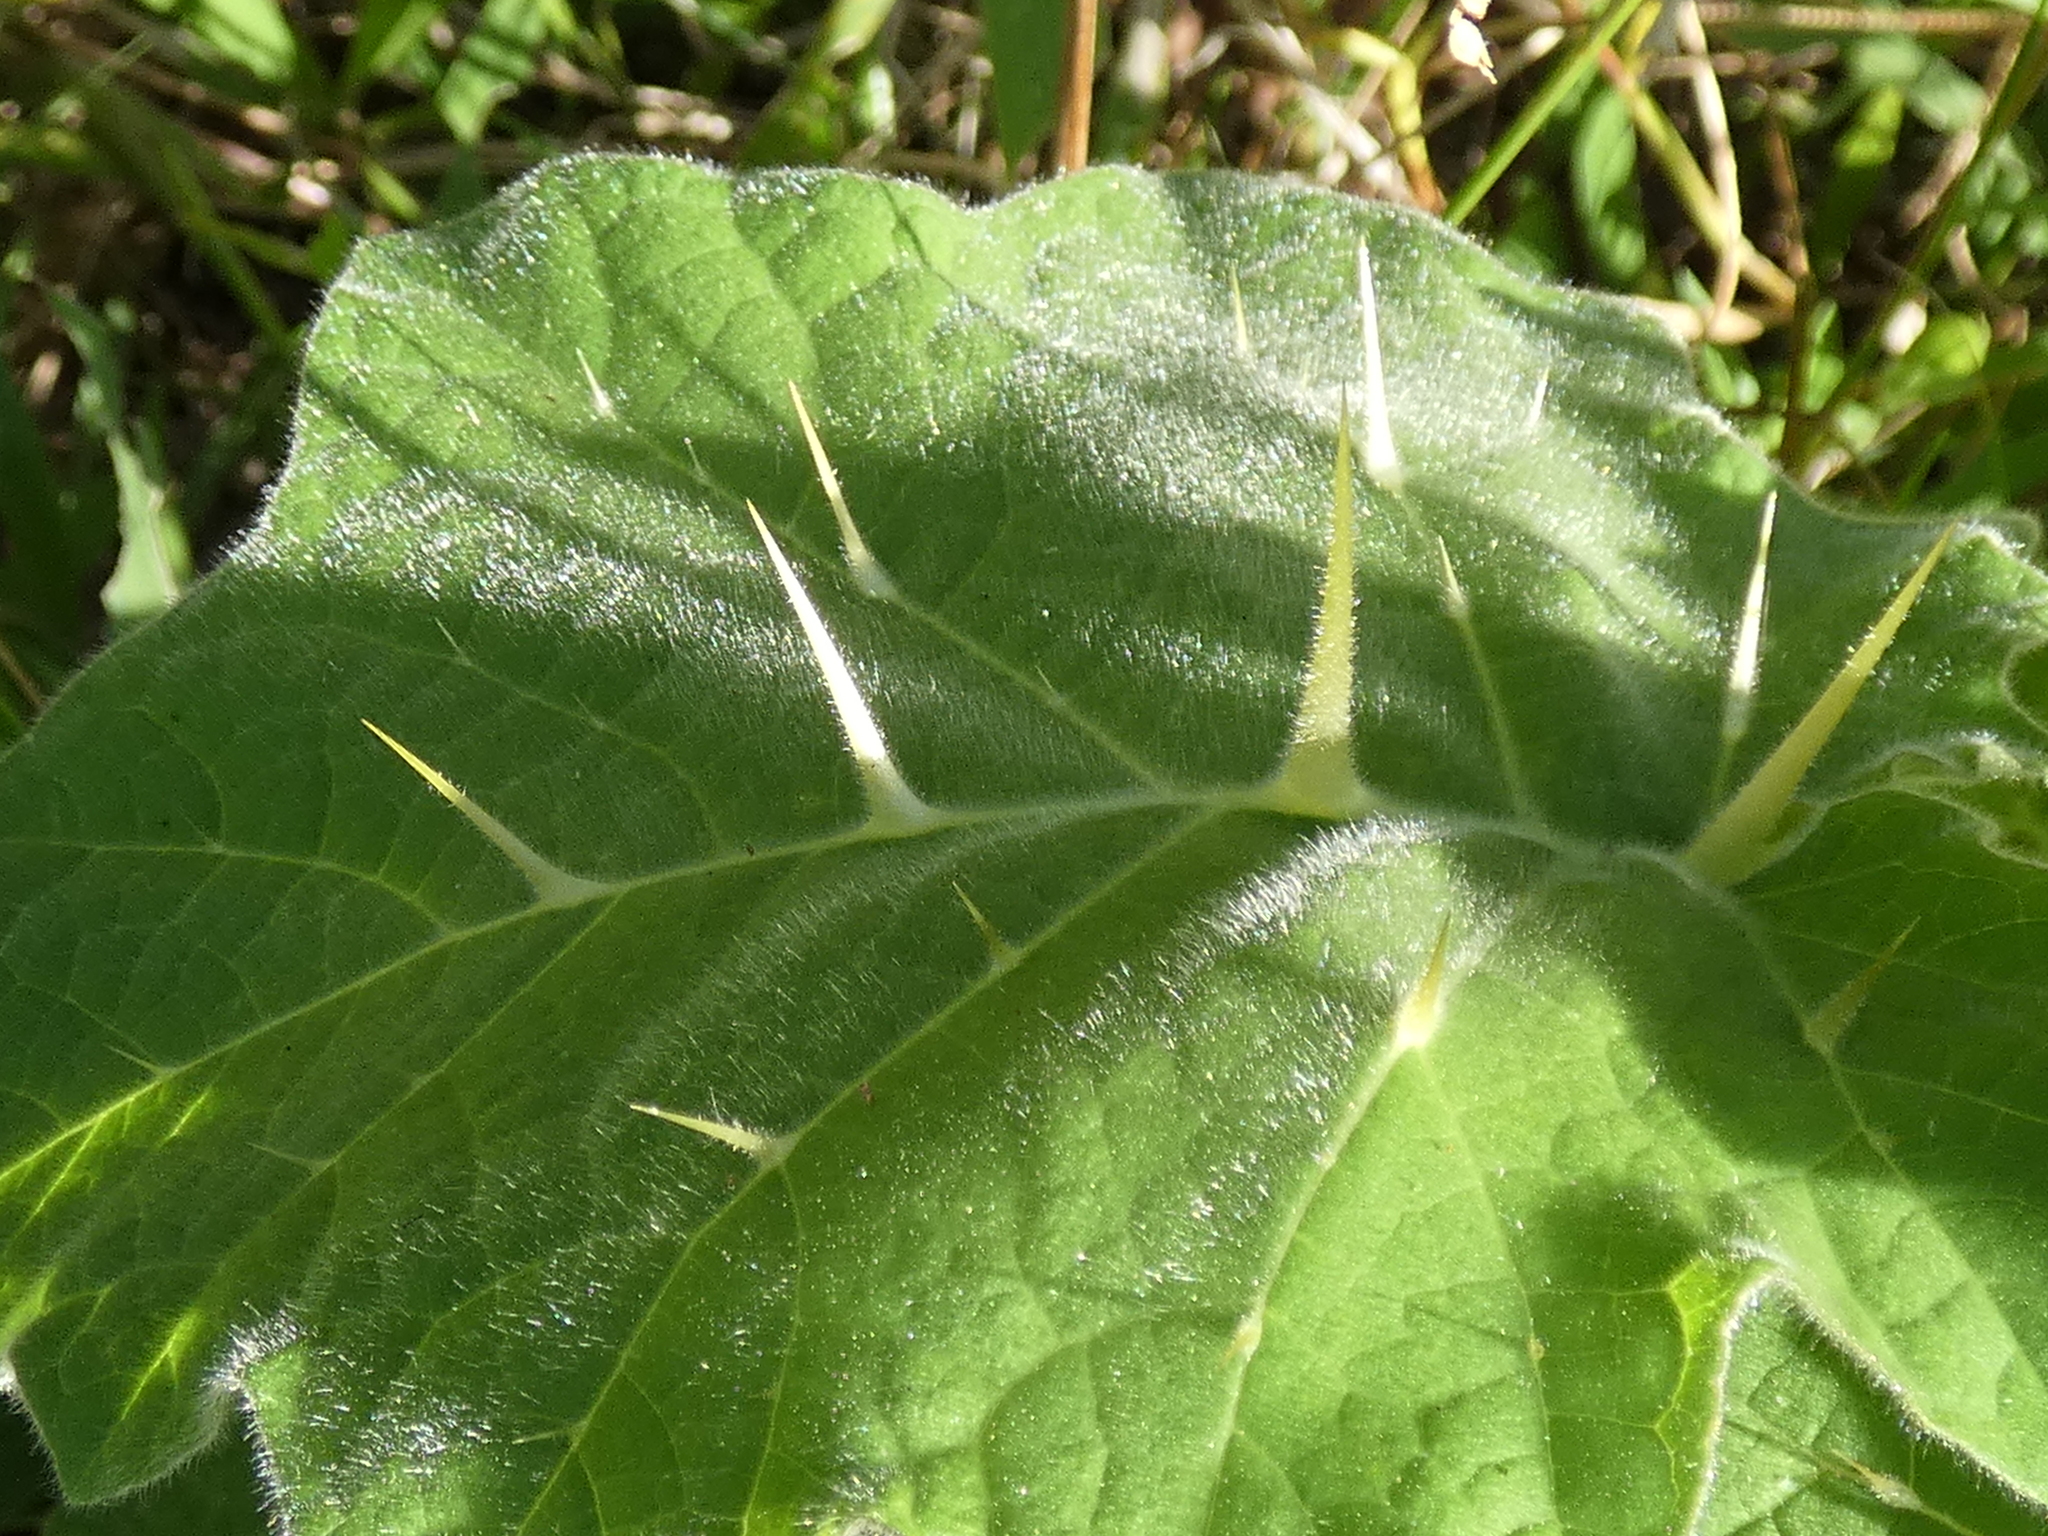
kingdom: Plantae
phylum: Tracheophyta
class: Magnoliopsida
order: Solanales
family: Solanaceae
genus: Solanum
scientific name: Solanum viarum
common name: Tropical soda apple
